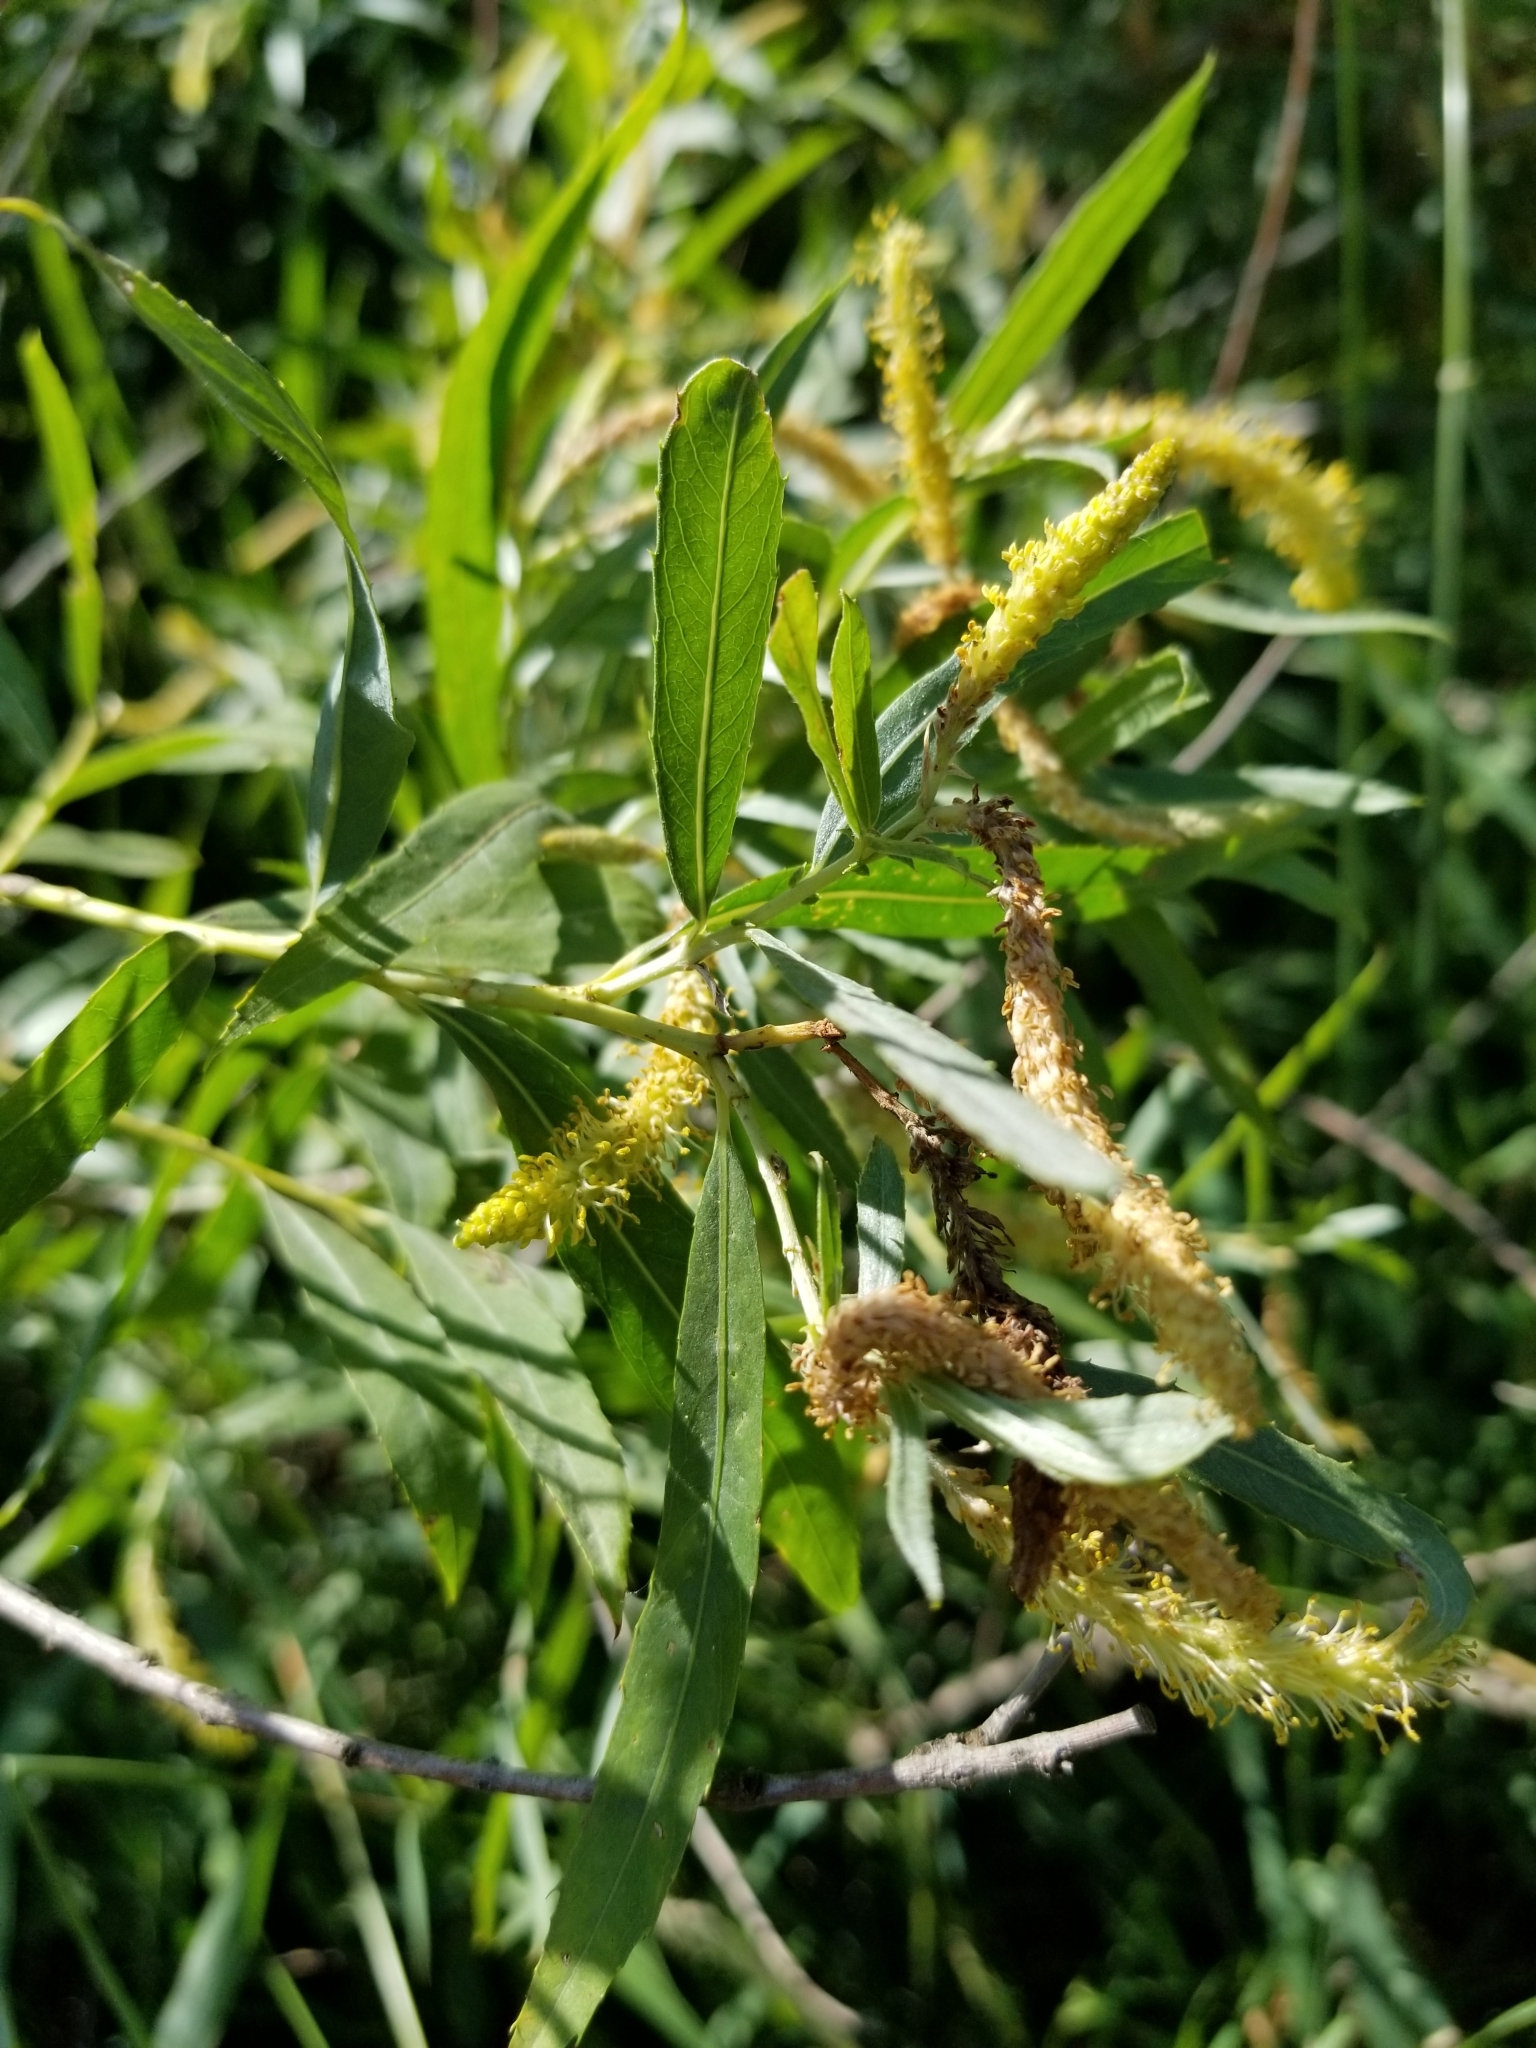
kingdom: Plantae
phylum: Tracheophyta
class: Magnoliopsida
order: Malpighiales
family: Salicaceae
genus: Salix
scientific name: Salix exigua
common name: Coyote willow
